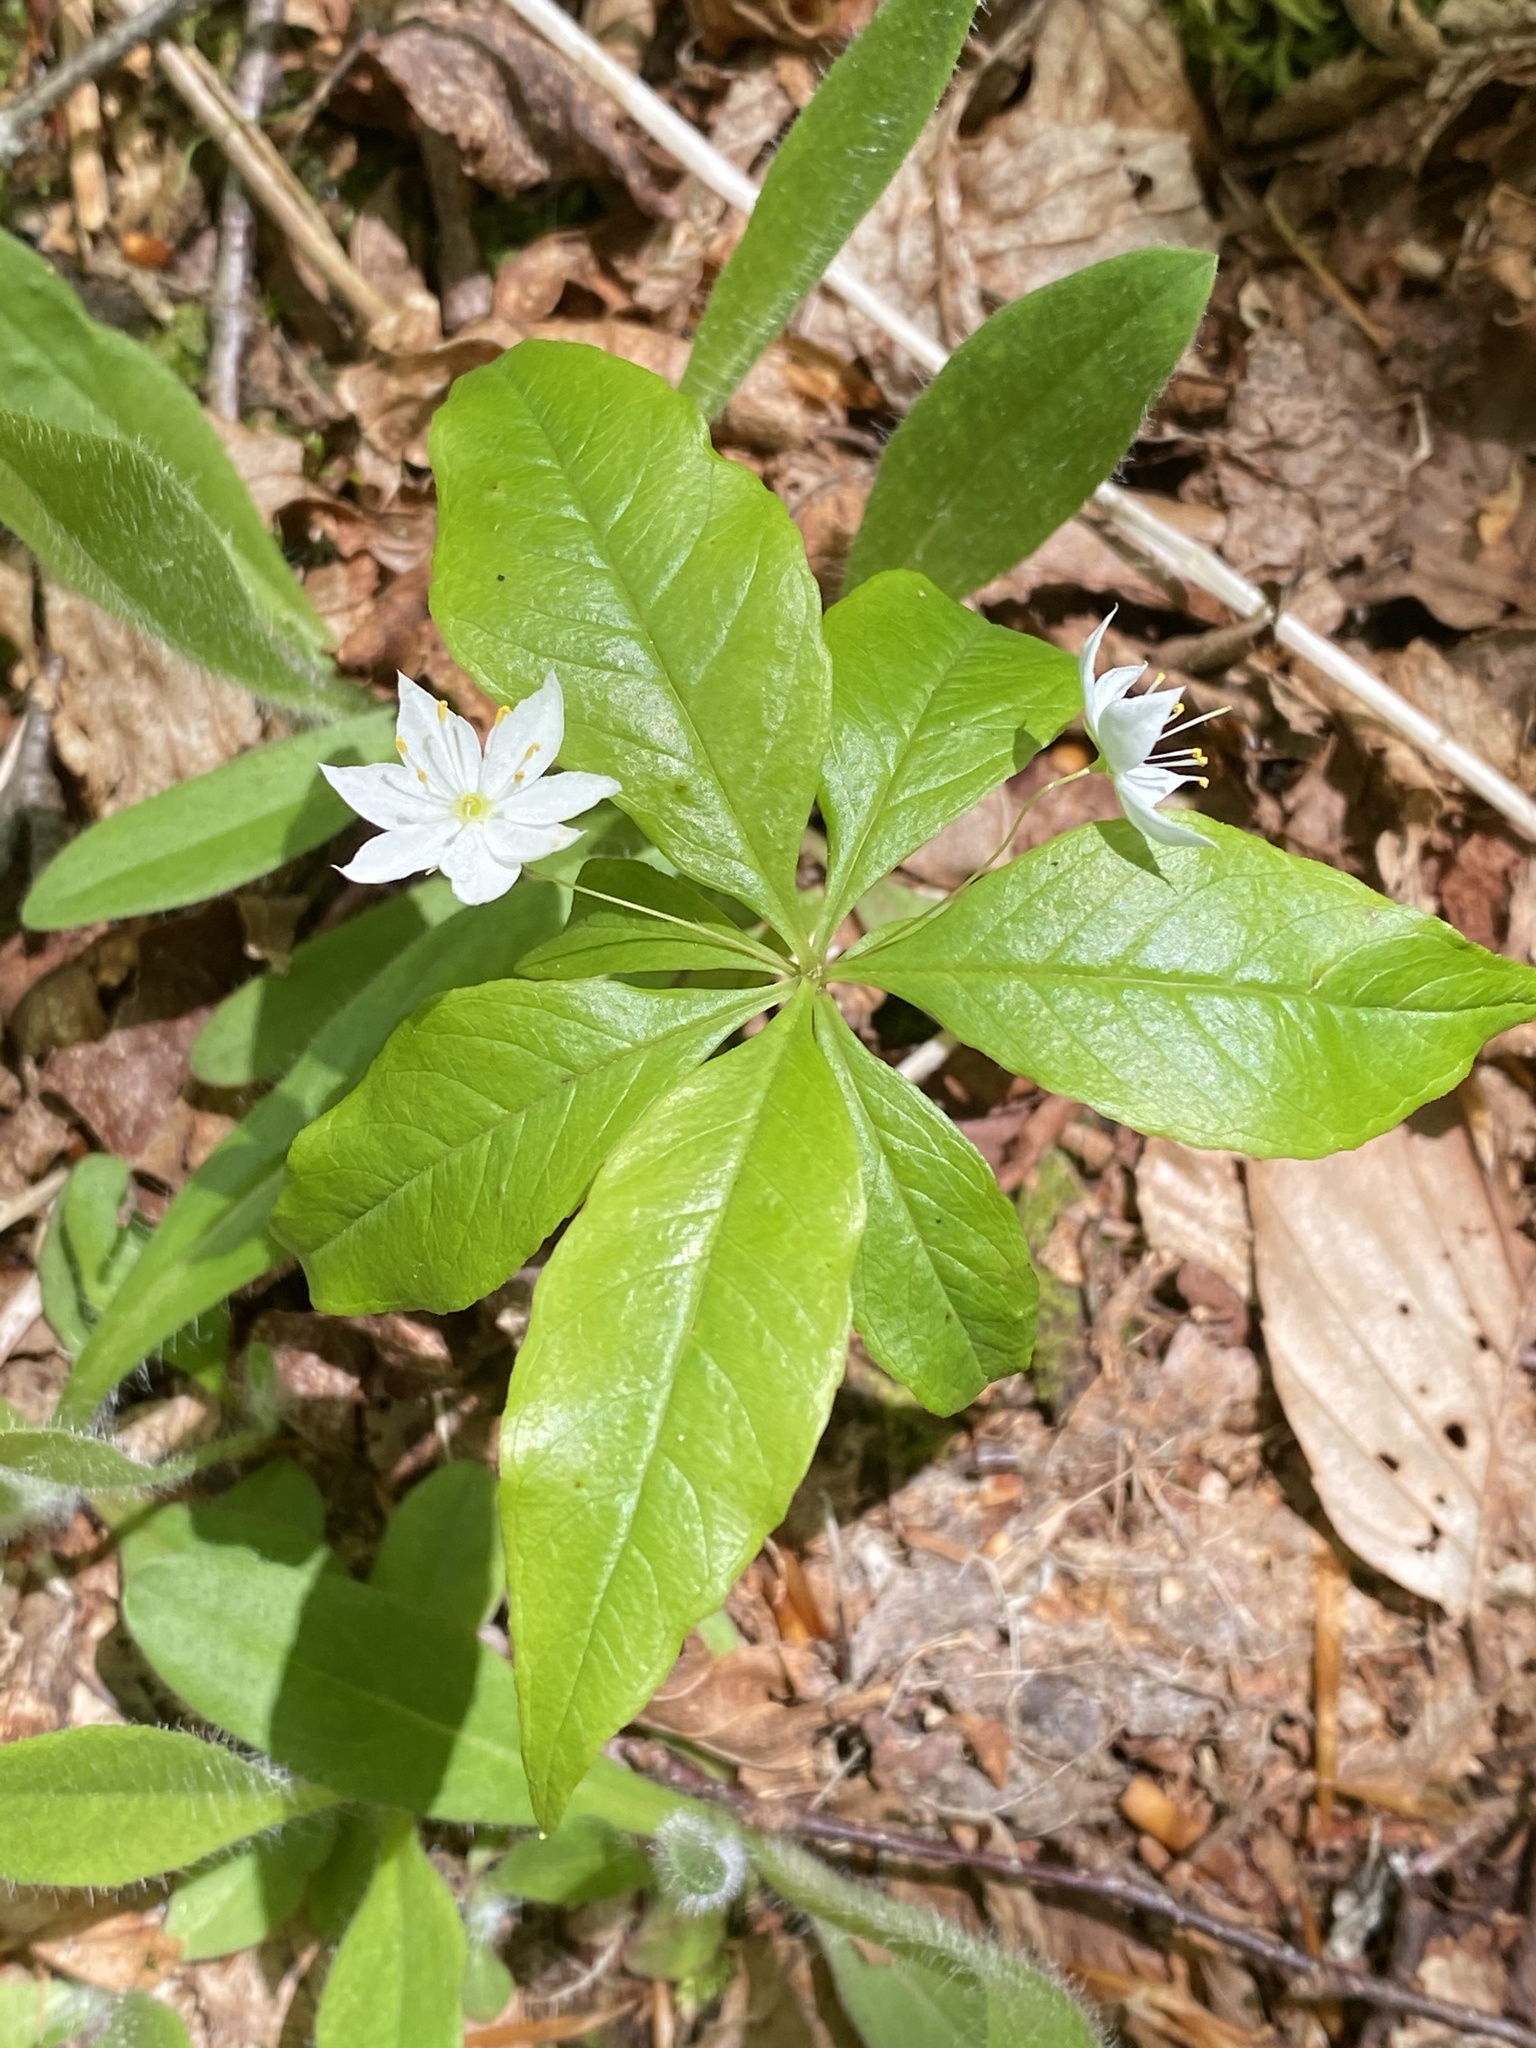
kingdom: Plantae
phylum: Tracheophyta
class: Magnoliopsida
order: Ericales
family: Primulaceae
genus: Lysimachia
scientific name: Lysimachia borealis
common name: American starflower
